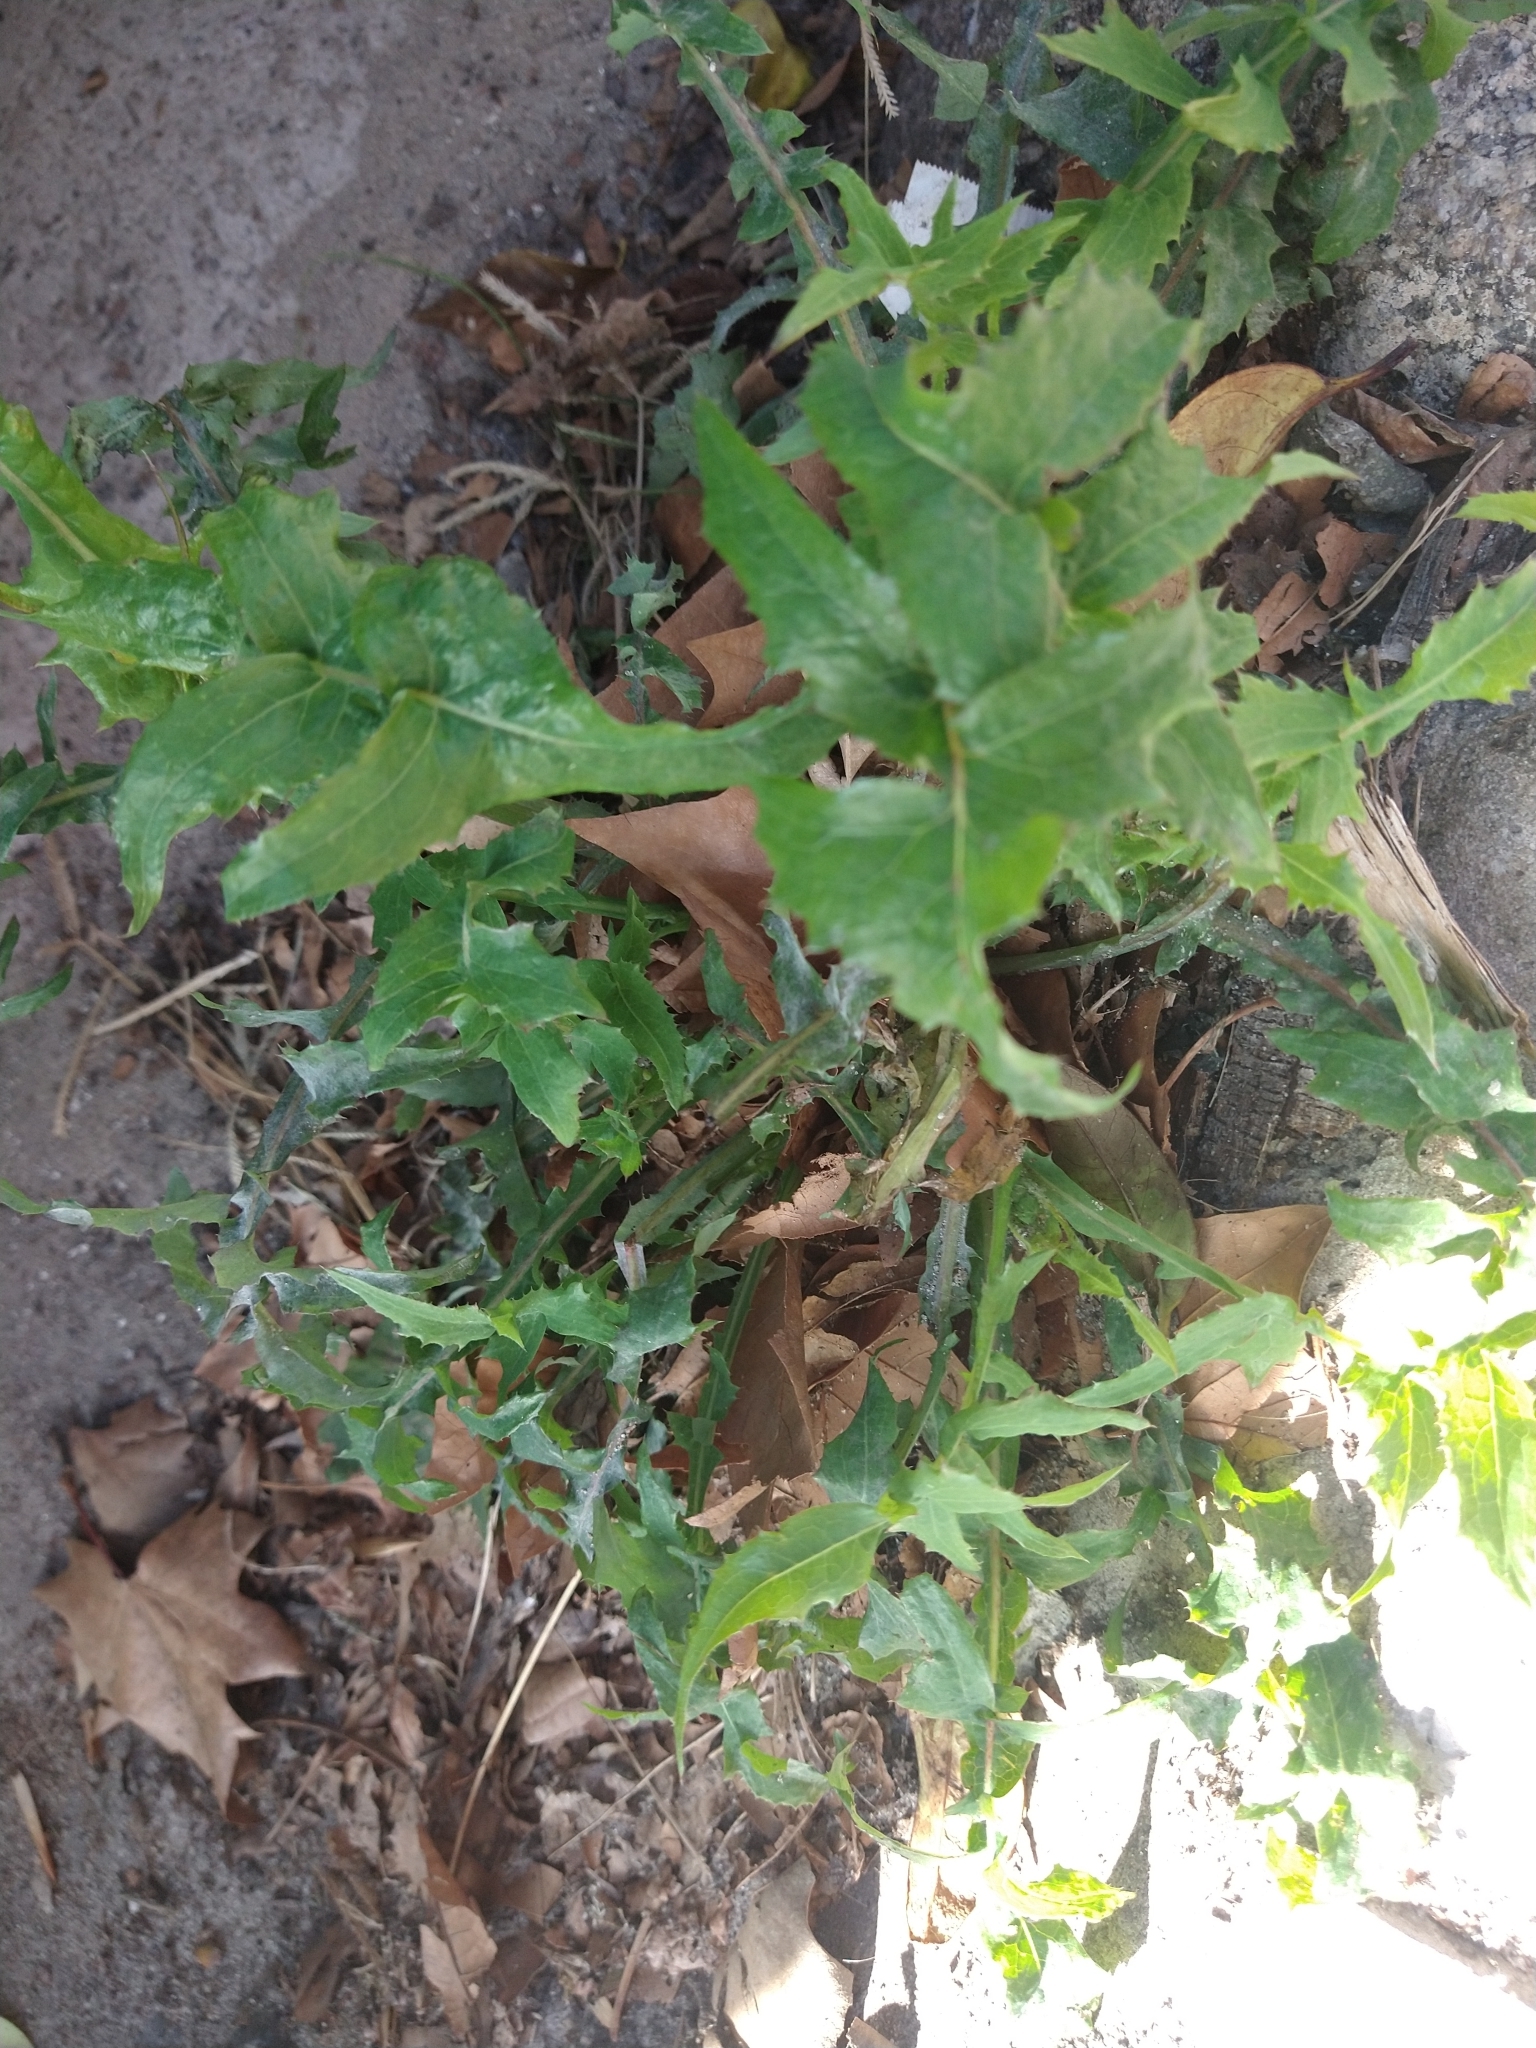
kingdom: Plantae
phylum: Tracheophyta
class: Magnoliopsida
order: Asterales
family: Asteraceae
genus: Sonchus
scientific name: Sonchus oleraceus
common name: Common sowthistle
